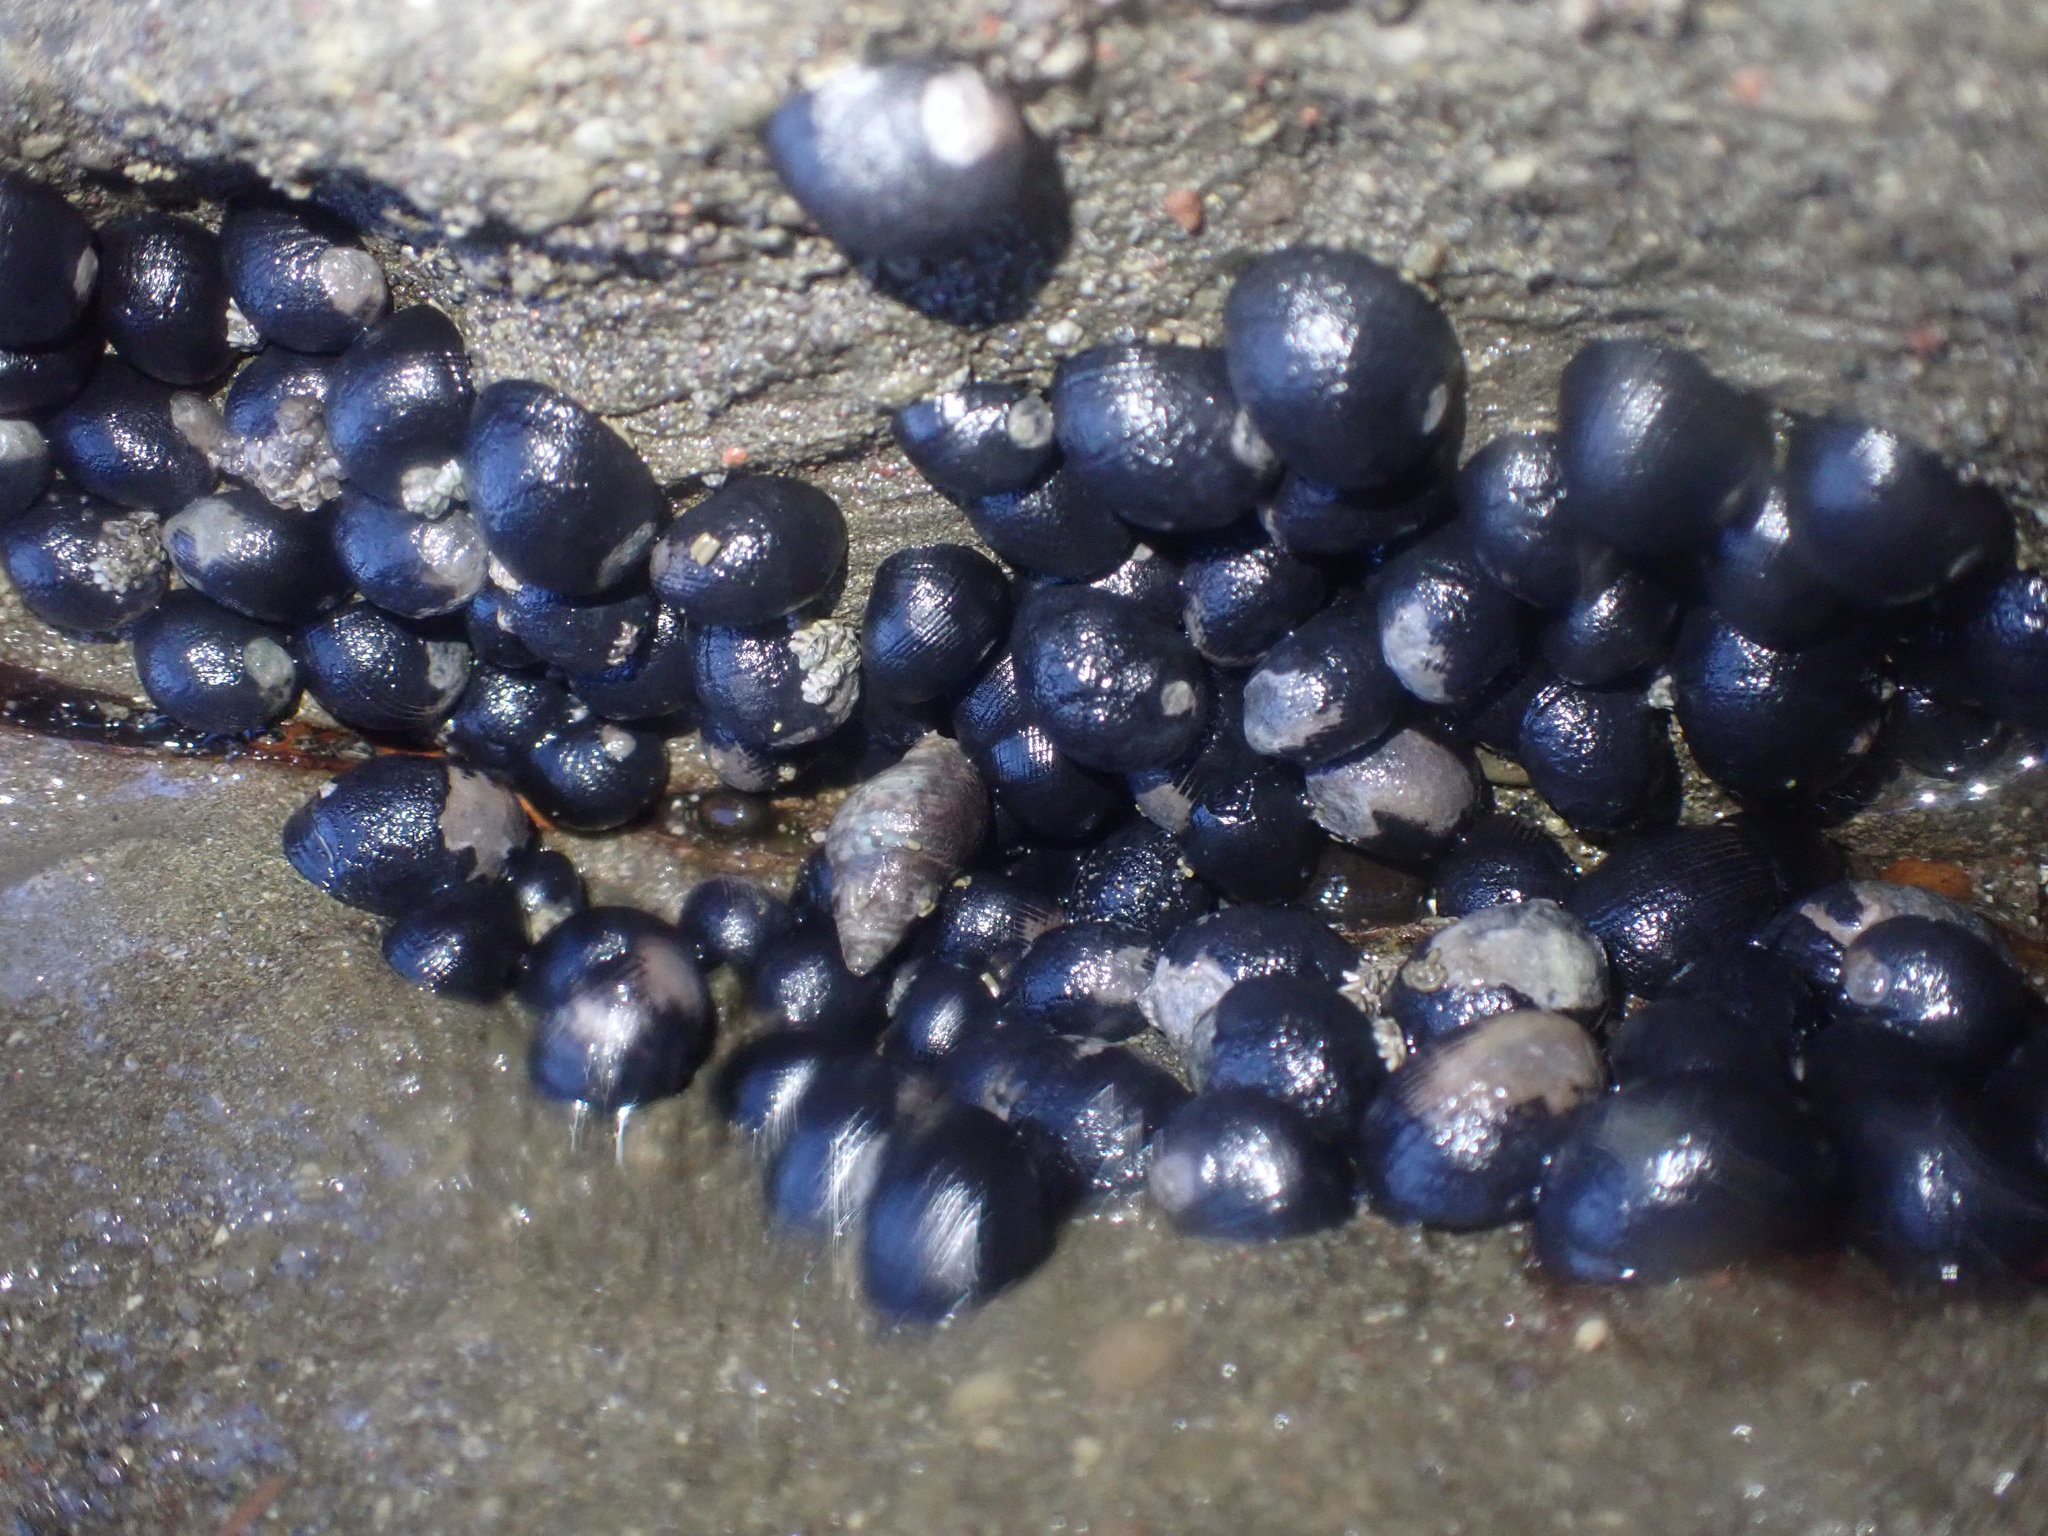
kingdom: Animalia
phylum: Mollusca
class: Gastropoda
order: Cycloneritida
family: Neritidae
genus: Nerita
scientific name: Nerita melanotragus
